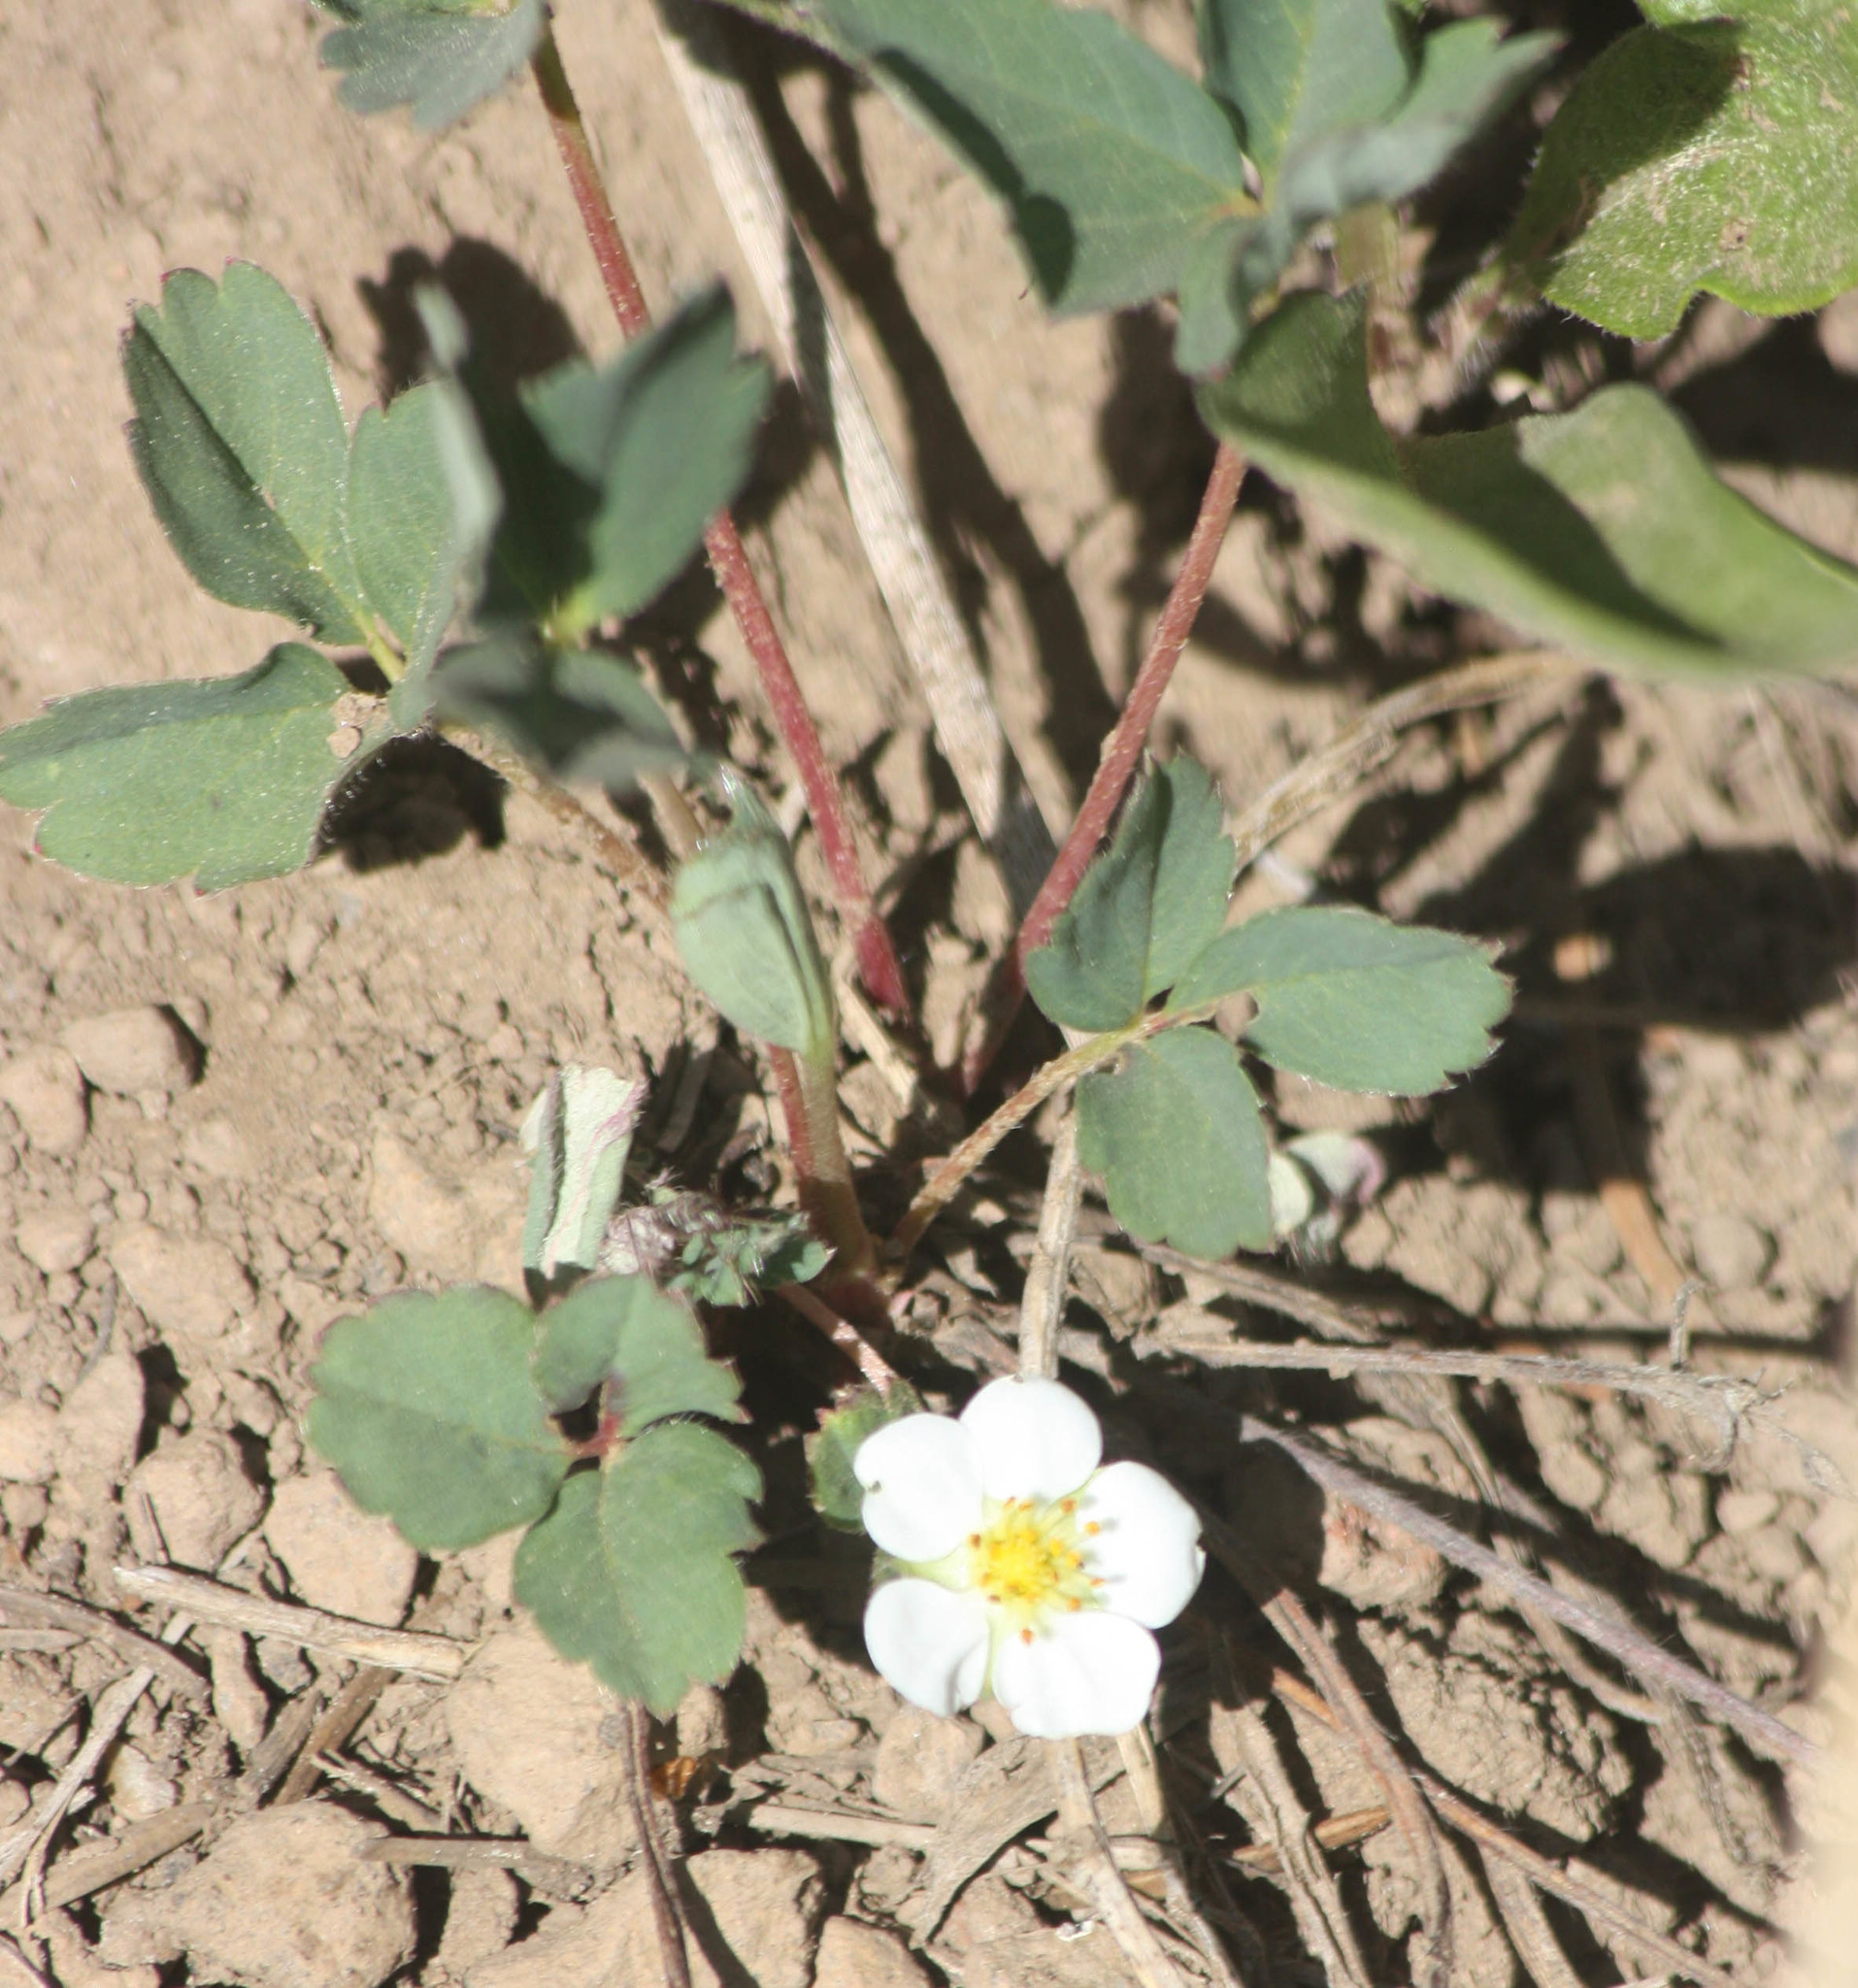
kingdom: Plantae
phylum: Tracheophyta
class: Magnoliopsida
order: Rosales
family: Rosaceae
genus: Fragaria
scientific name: Fragaria virginiana
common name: Thickleaved wild strawberry
